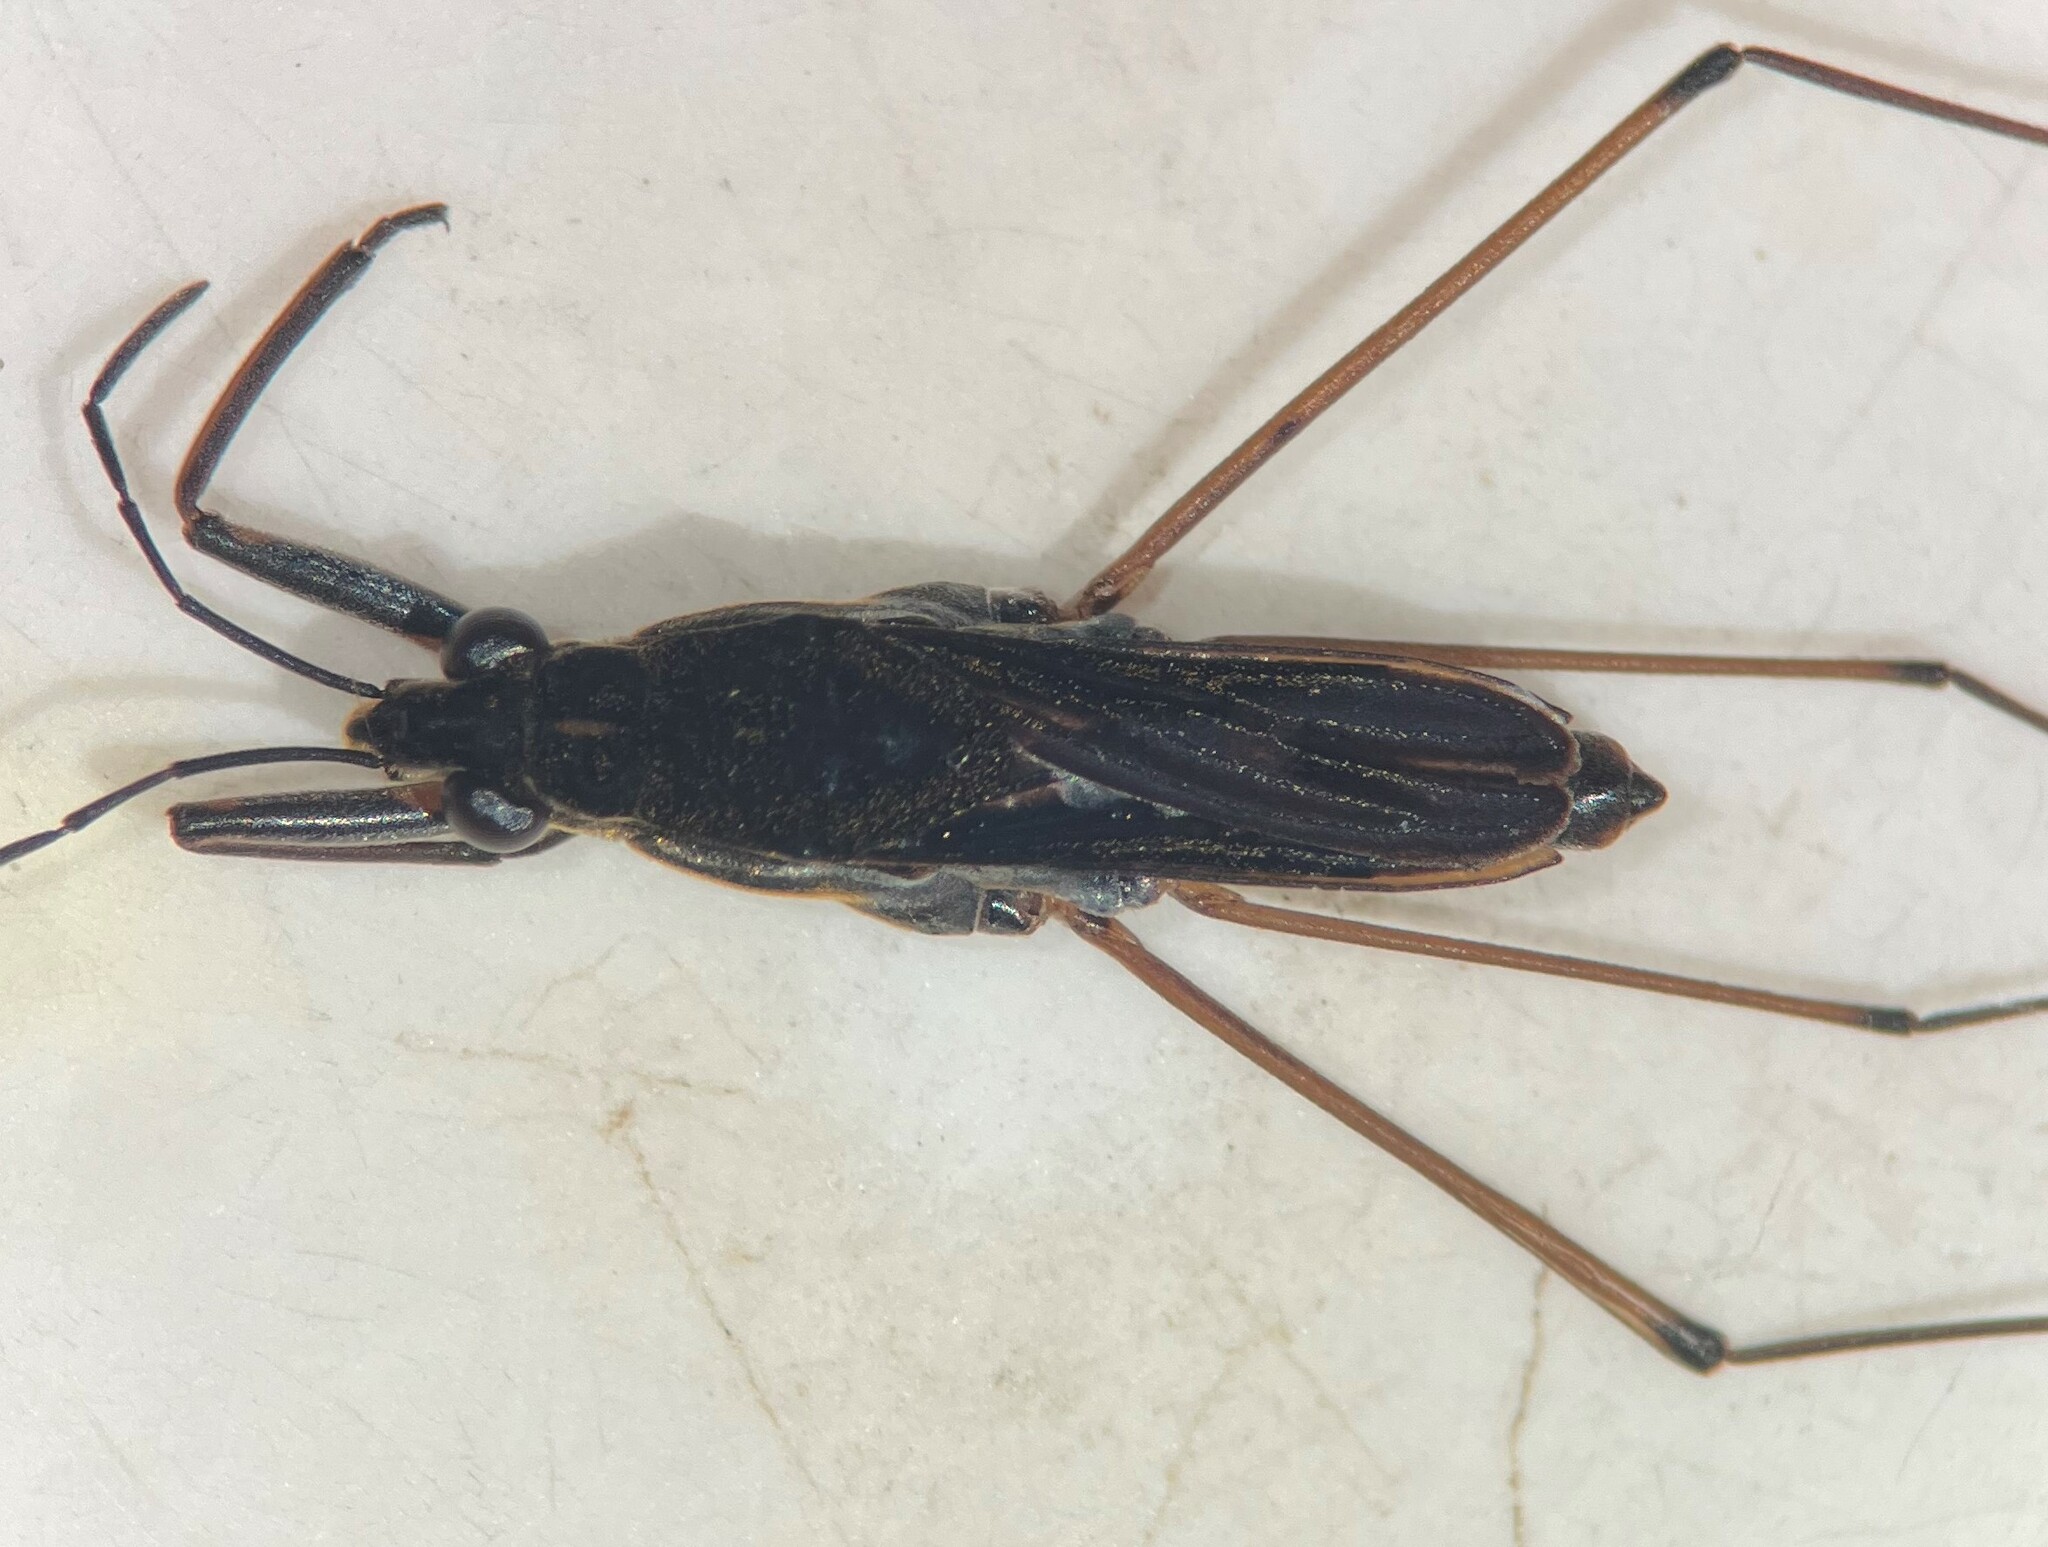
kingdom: Animalia
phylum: Arthropoda
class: Insecta
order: Hemiptera
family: Gerridae
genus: Gerris
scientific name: Gerris buenoi
